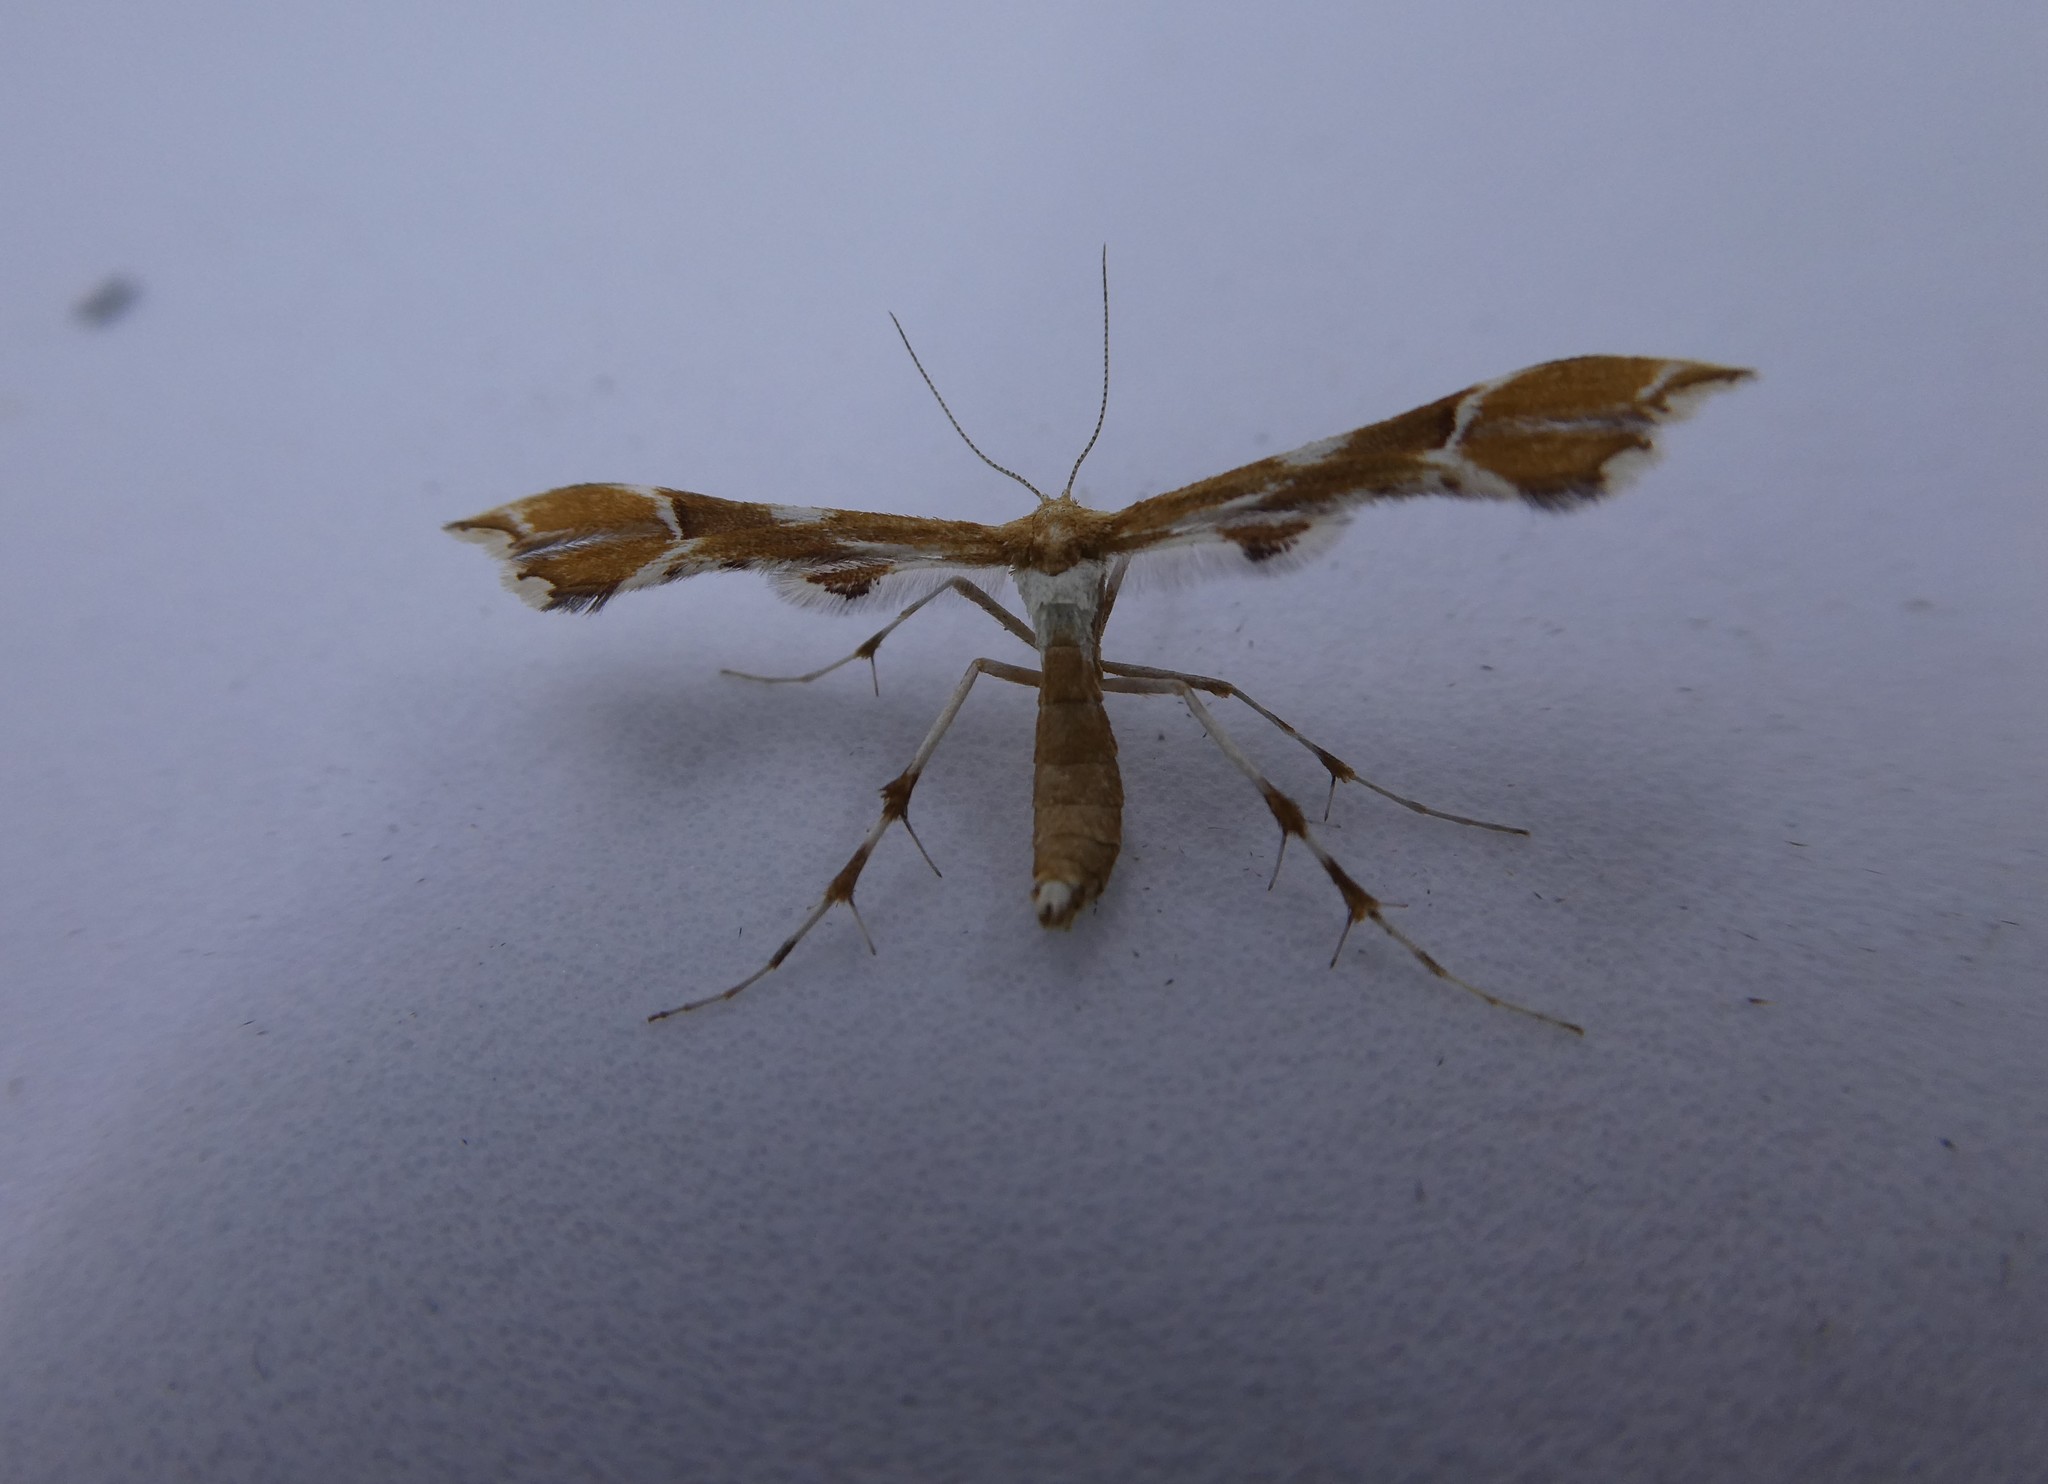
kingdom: Animalia
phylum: Arthropoda
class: Insecta
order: Lepidoptera
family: Pterophoridae
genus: Cnaemidophorus
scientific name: Cnaemidophorus rhododactyla
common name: Rose plume
